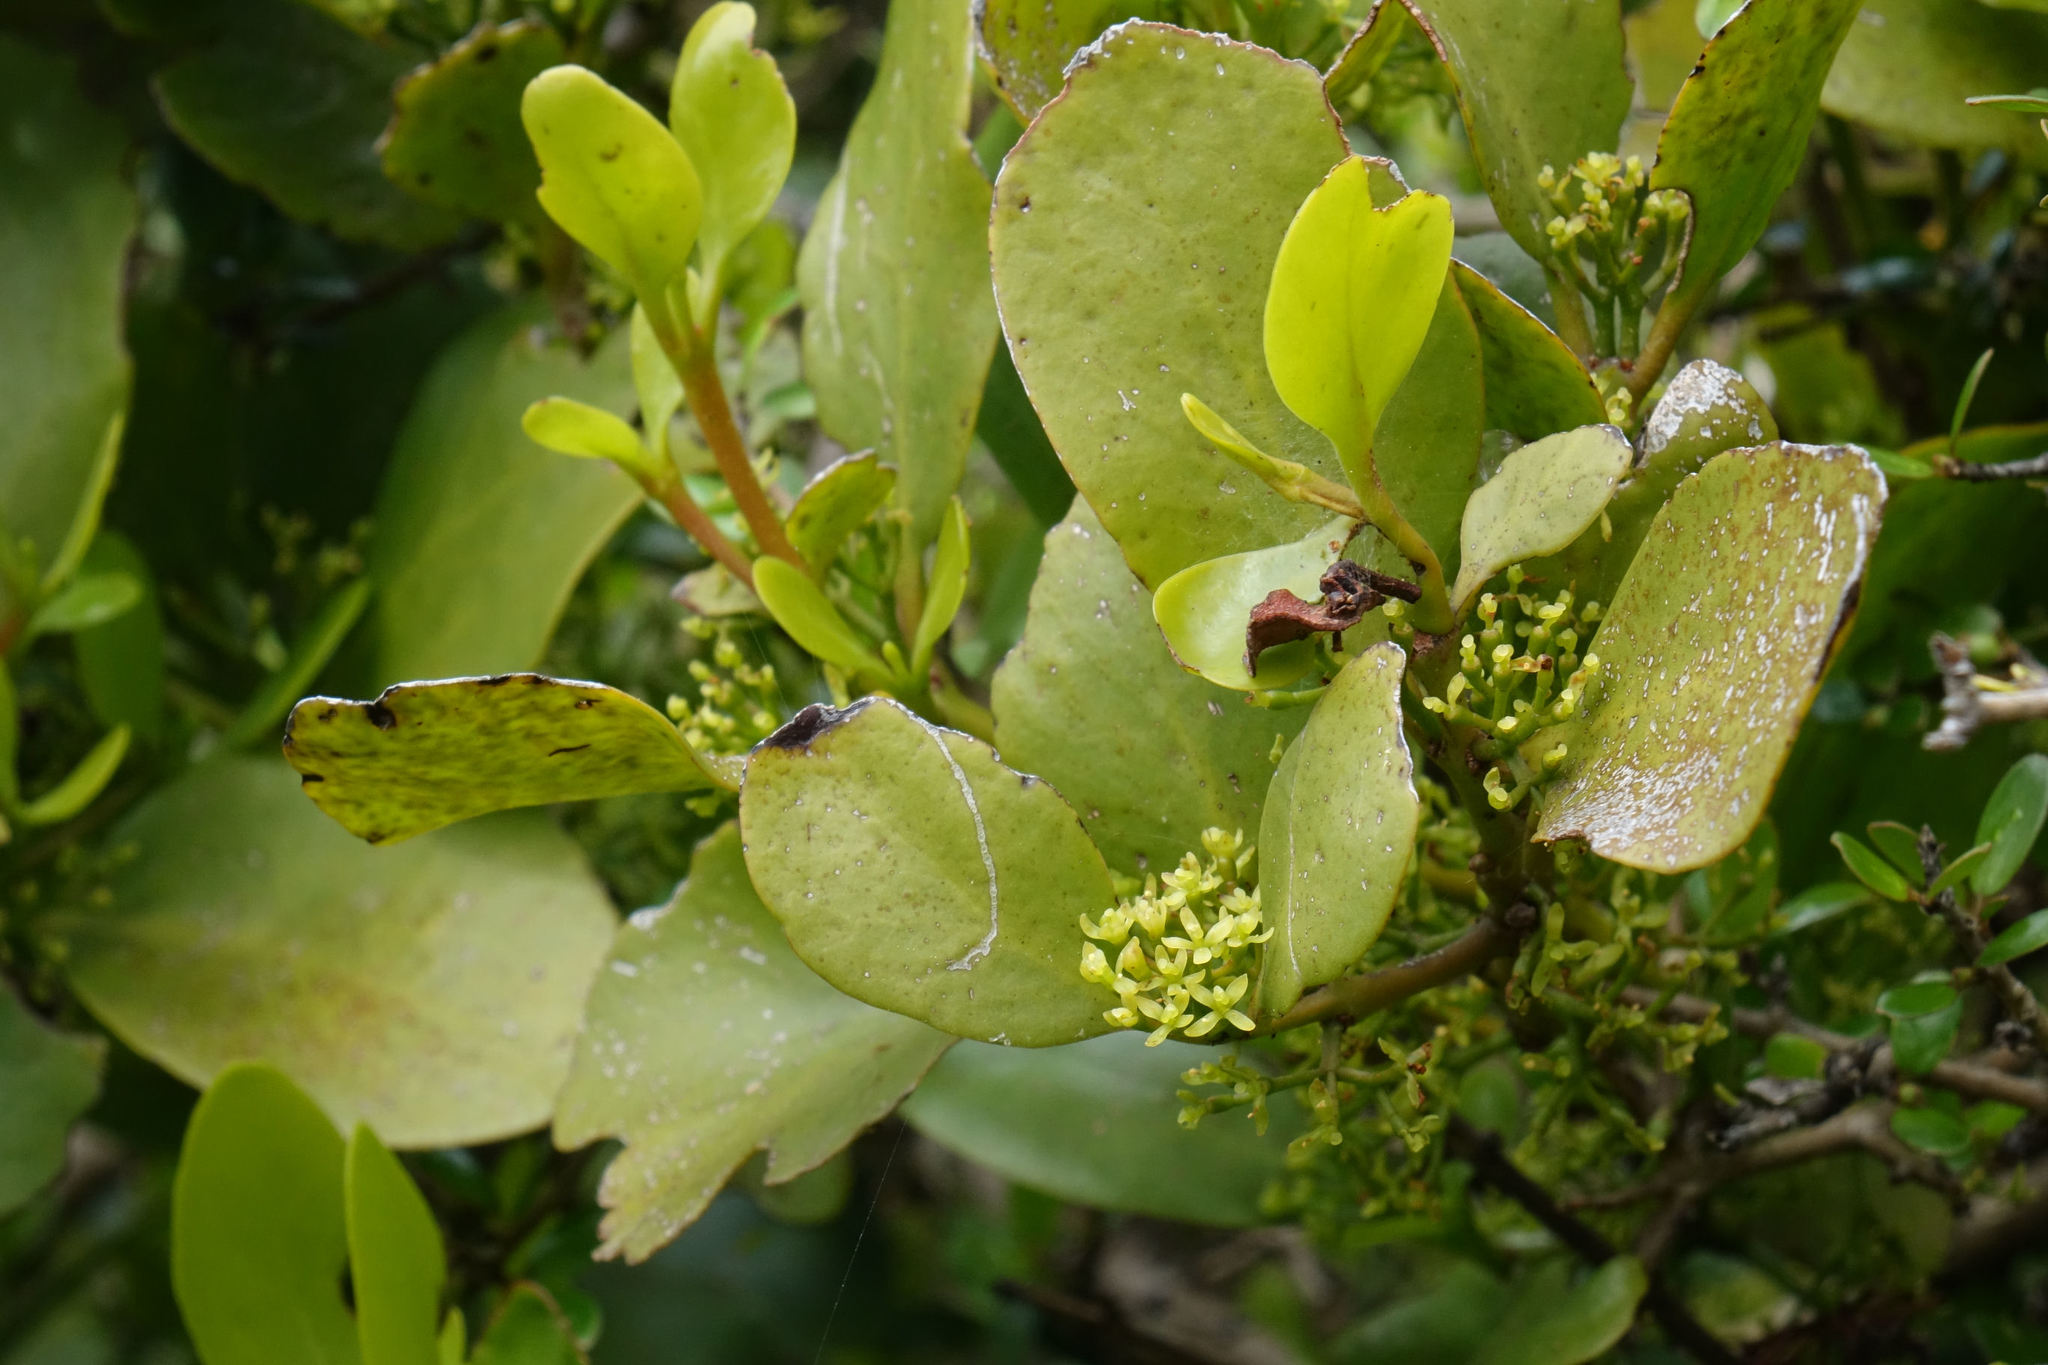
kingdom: Plantae
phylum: Tracheophyta
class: Magnoliopsida
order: Santalales
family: Loranthaceae
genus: Ileostylus
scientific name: Ileostylus micranthus
